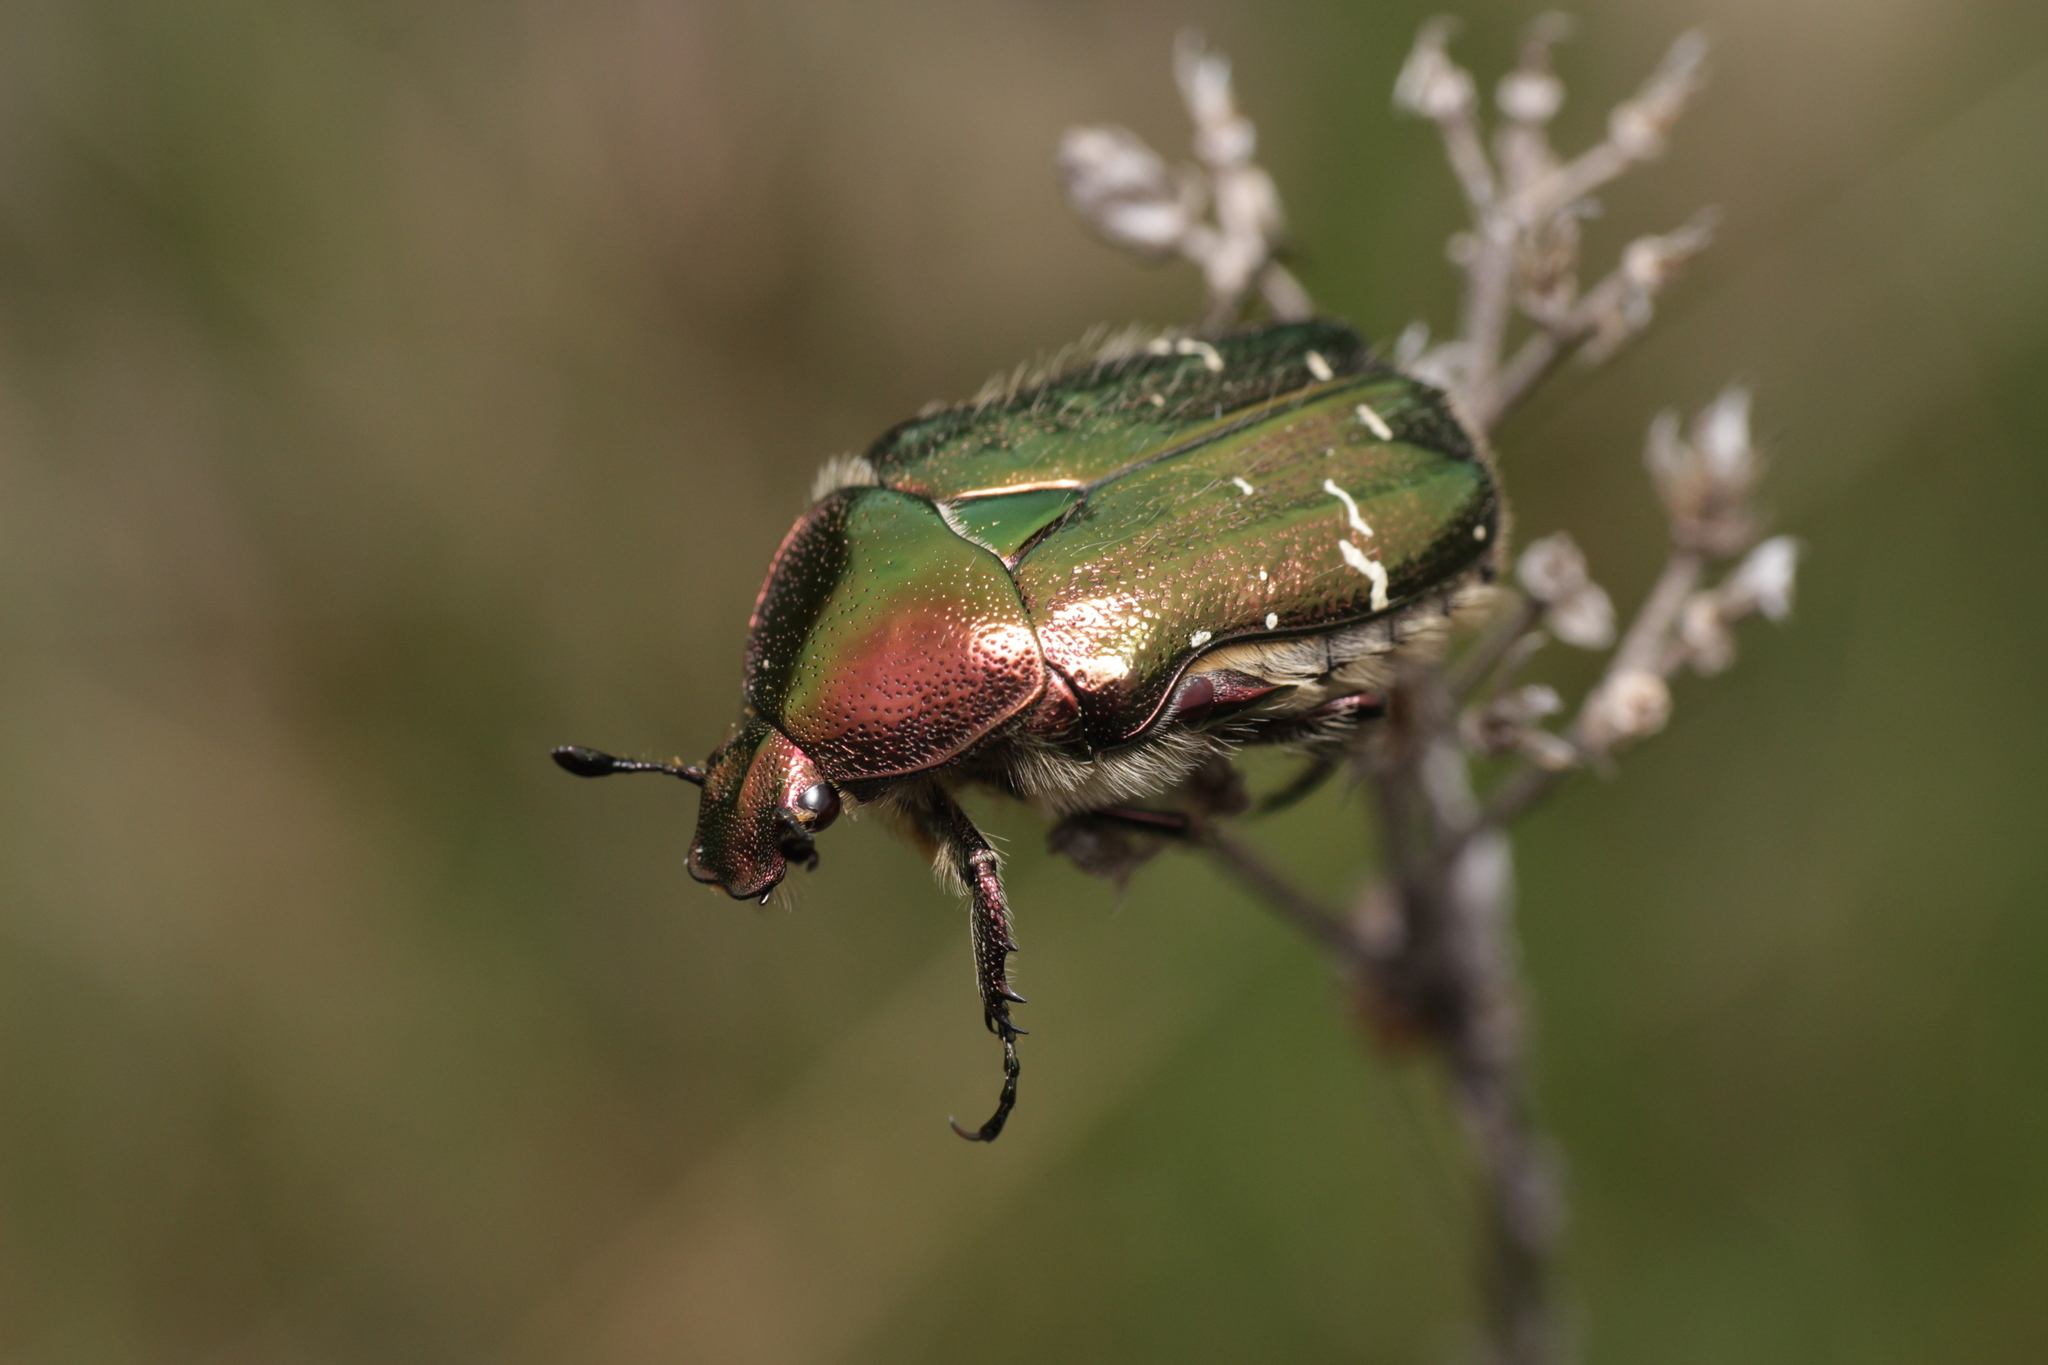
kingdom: Animalia
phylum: Arthropoda
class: Insecta
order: Coleoptera
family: Scarabaeidae
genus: Cetonia
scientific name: Cetonia aurata
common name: Rose chafer
